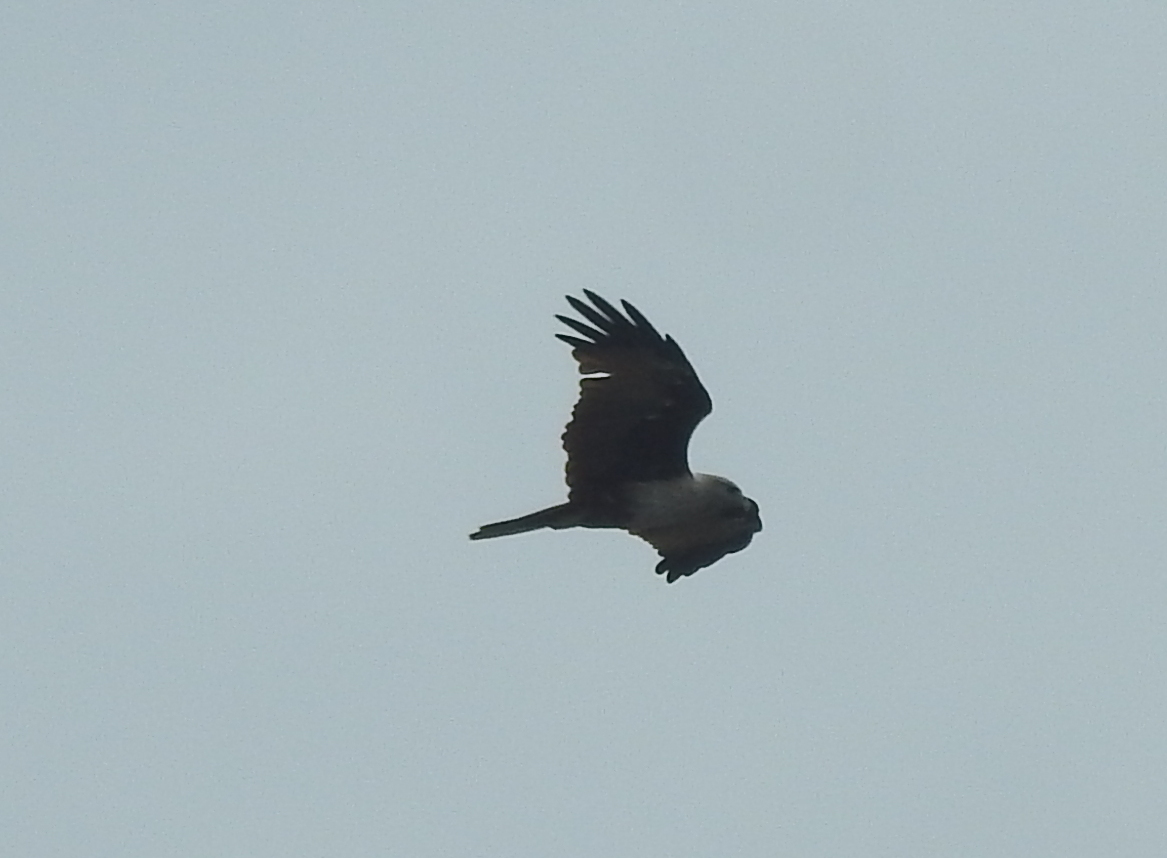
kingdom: Animalia
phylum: Chordata
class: Aves
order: Accipitriformes
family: Accipitridae
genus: Haliastur
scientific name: Haliastur indus
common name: Brahminy kite
